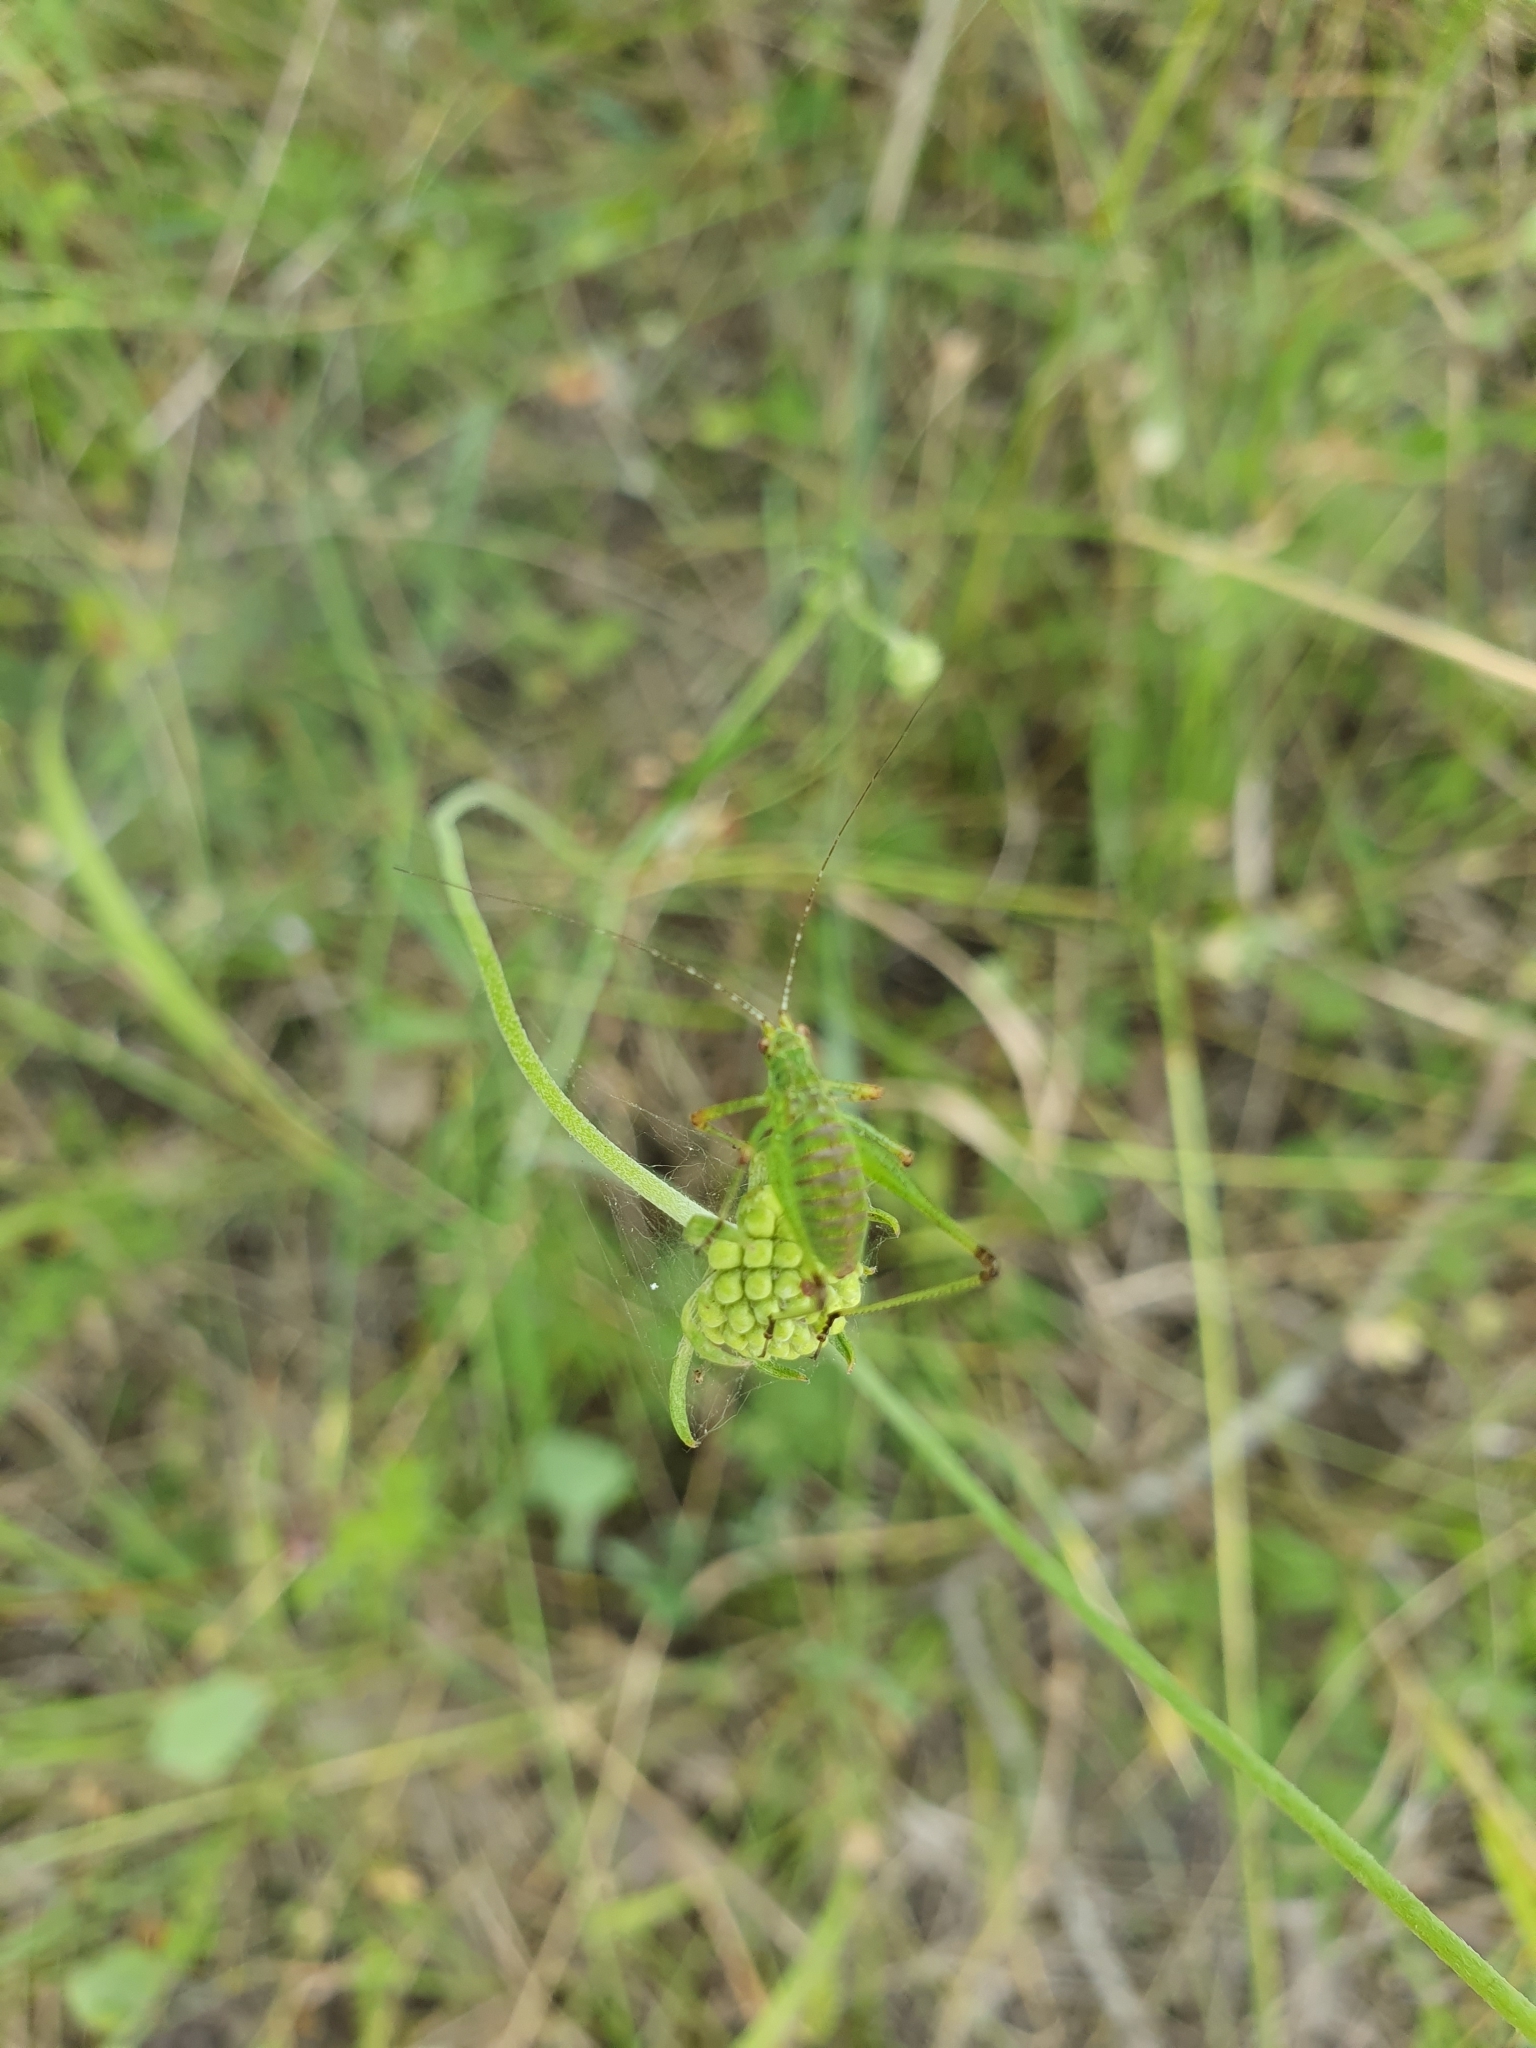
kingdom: Animalia
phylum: Arthropoda
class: Insecta
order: Orthoptera
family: Tettigoniidae
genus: Leptophyes
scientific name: Leptophyes punctatissima
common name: Speckled bush-cricket
